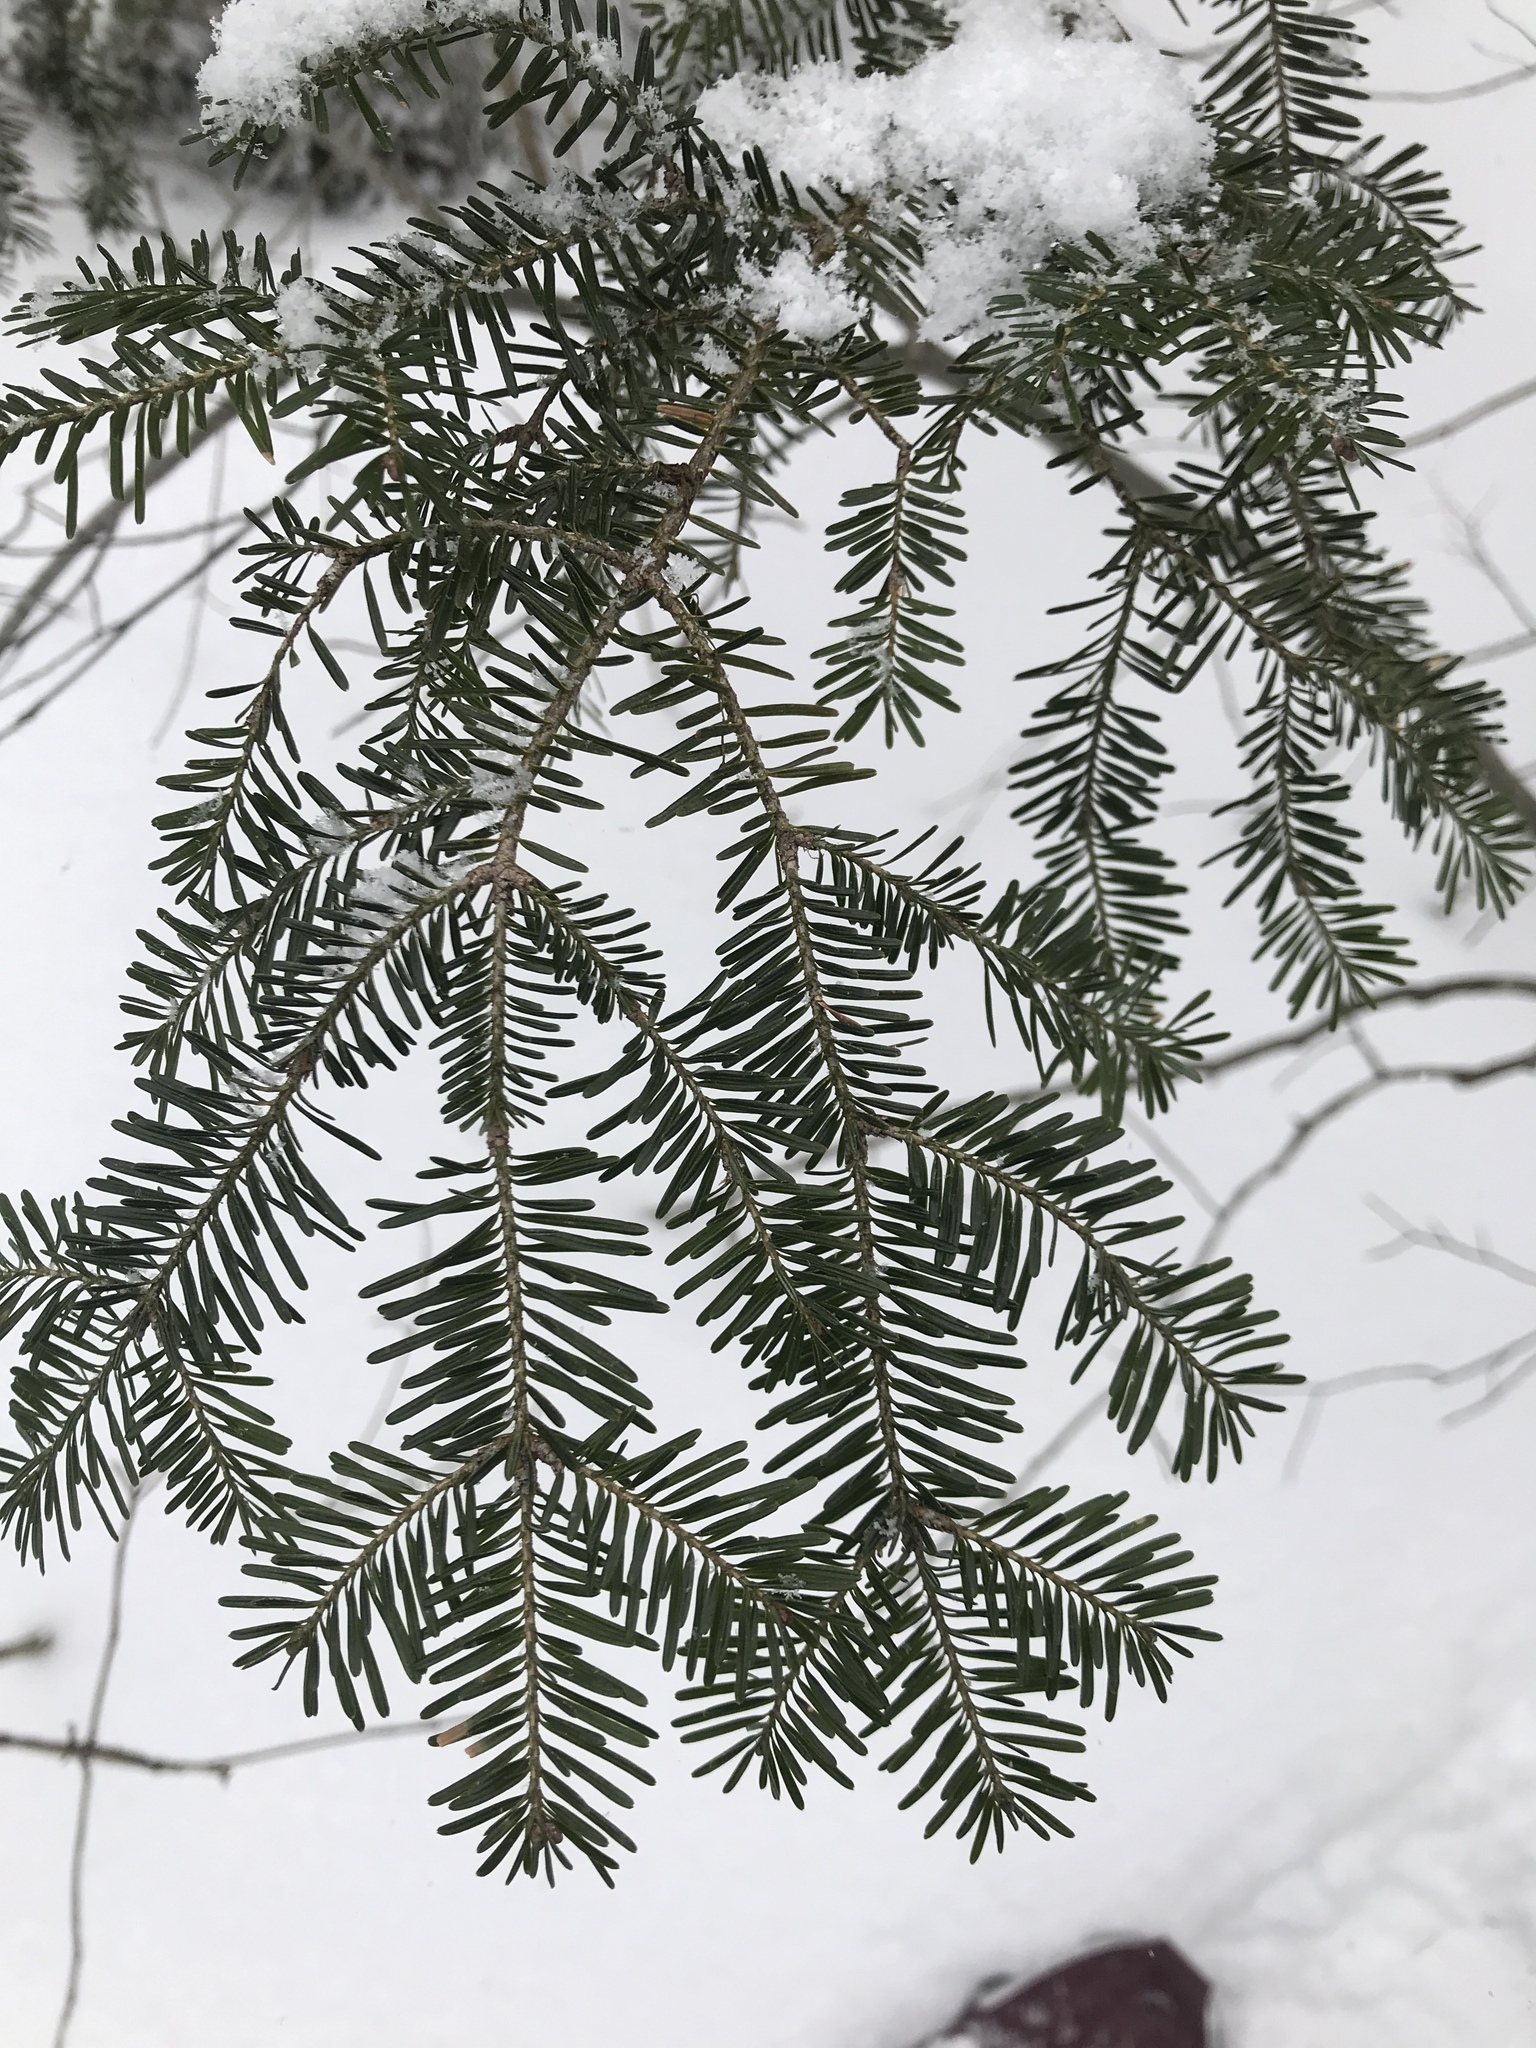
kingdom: Plantae
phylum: Tracheophyta
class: Pinopsida
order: Pinales
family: Pinaceae
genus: Abies
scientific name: Abies balsamea
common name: Balsam fir
